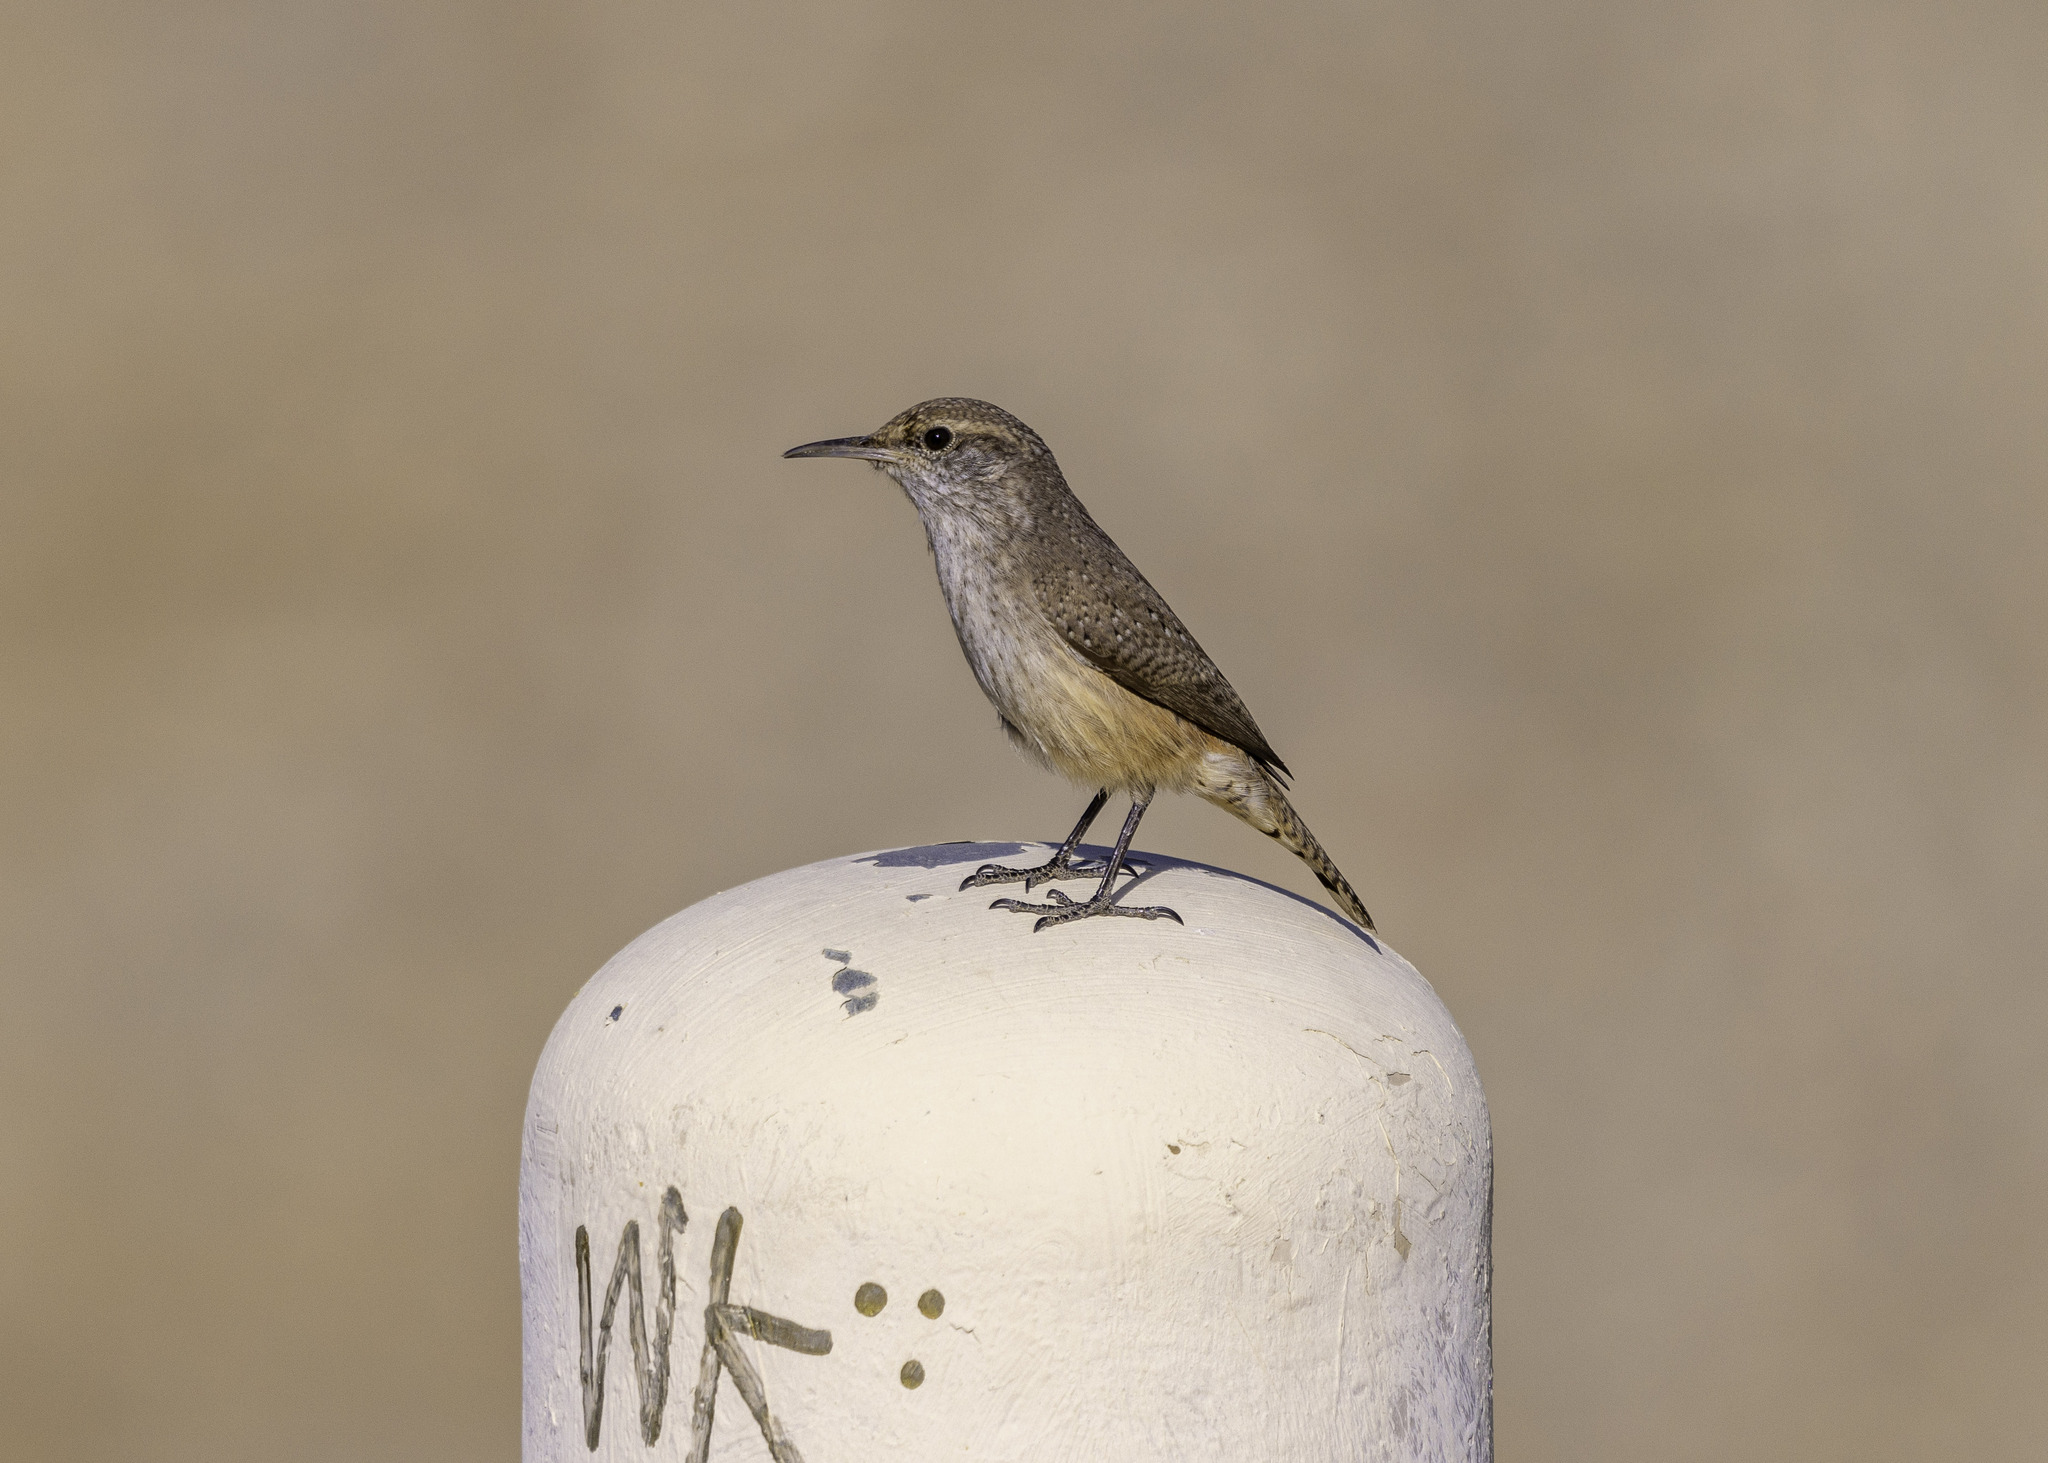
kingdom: Animalia
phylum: Chordata
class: Aves
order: Passeriformes
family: Troglodytidae
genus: Salpinctes
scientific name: Salpinctes obsoletus
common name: Rock wren
